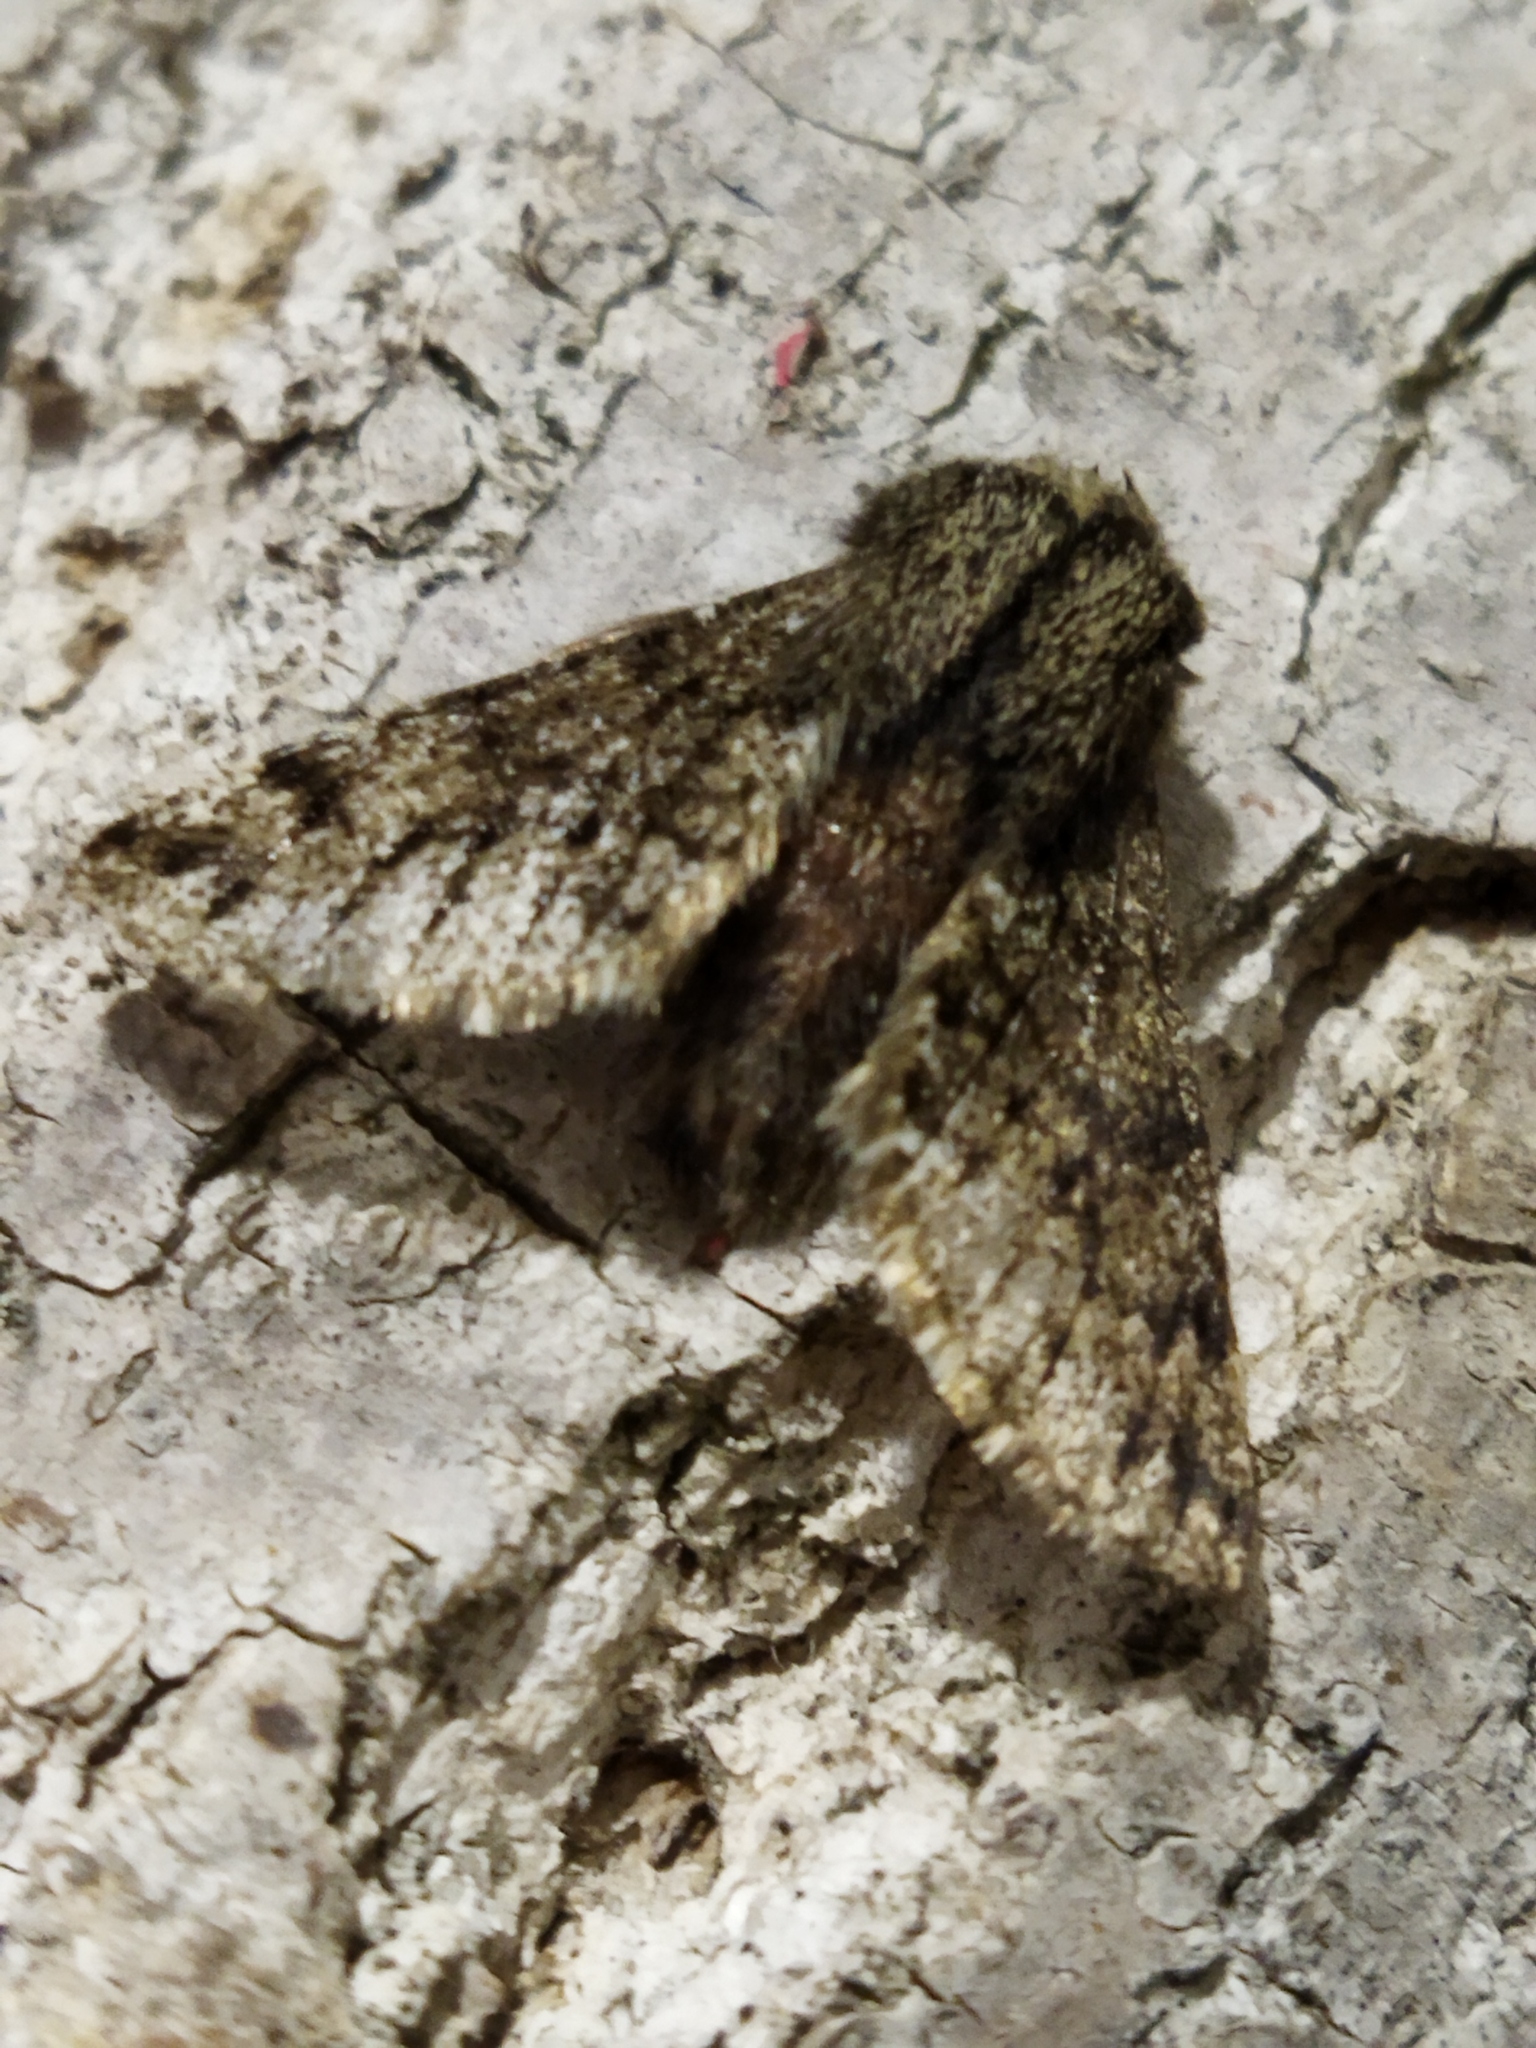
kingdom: Animalia
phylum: Arthropoda
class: Insecta
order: Lepidoptera
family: Geometridae
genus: Apocheima
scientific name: Apocheima hispidaria
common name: Small brindled beauty
